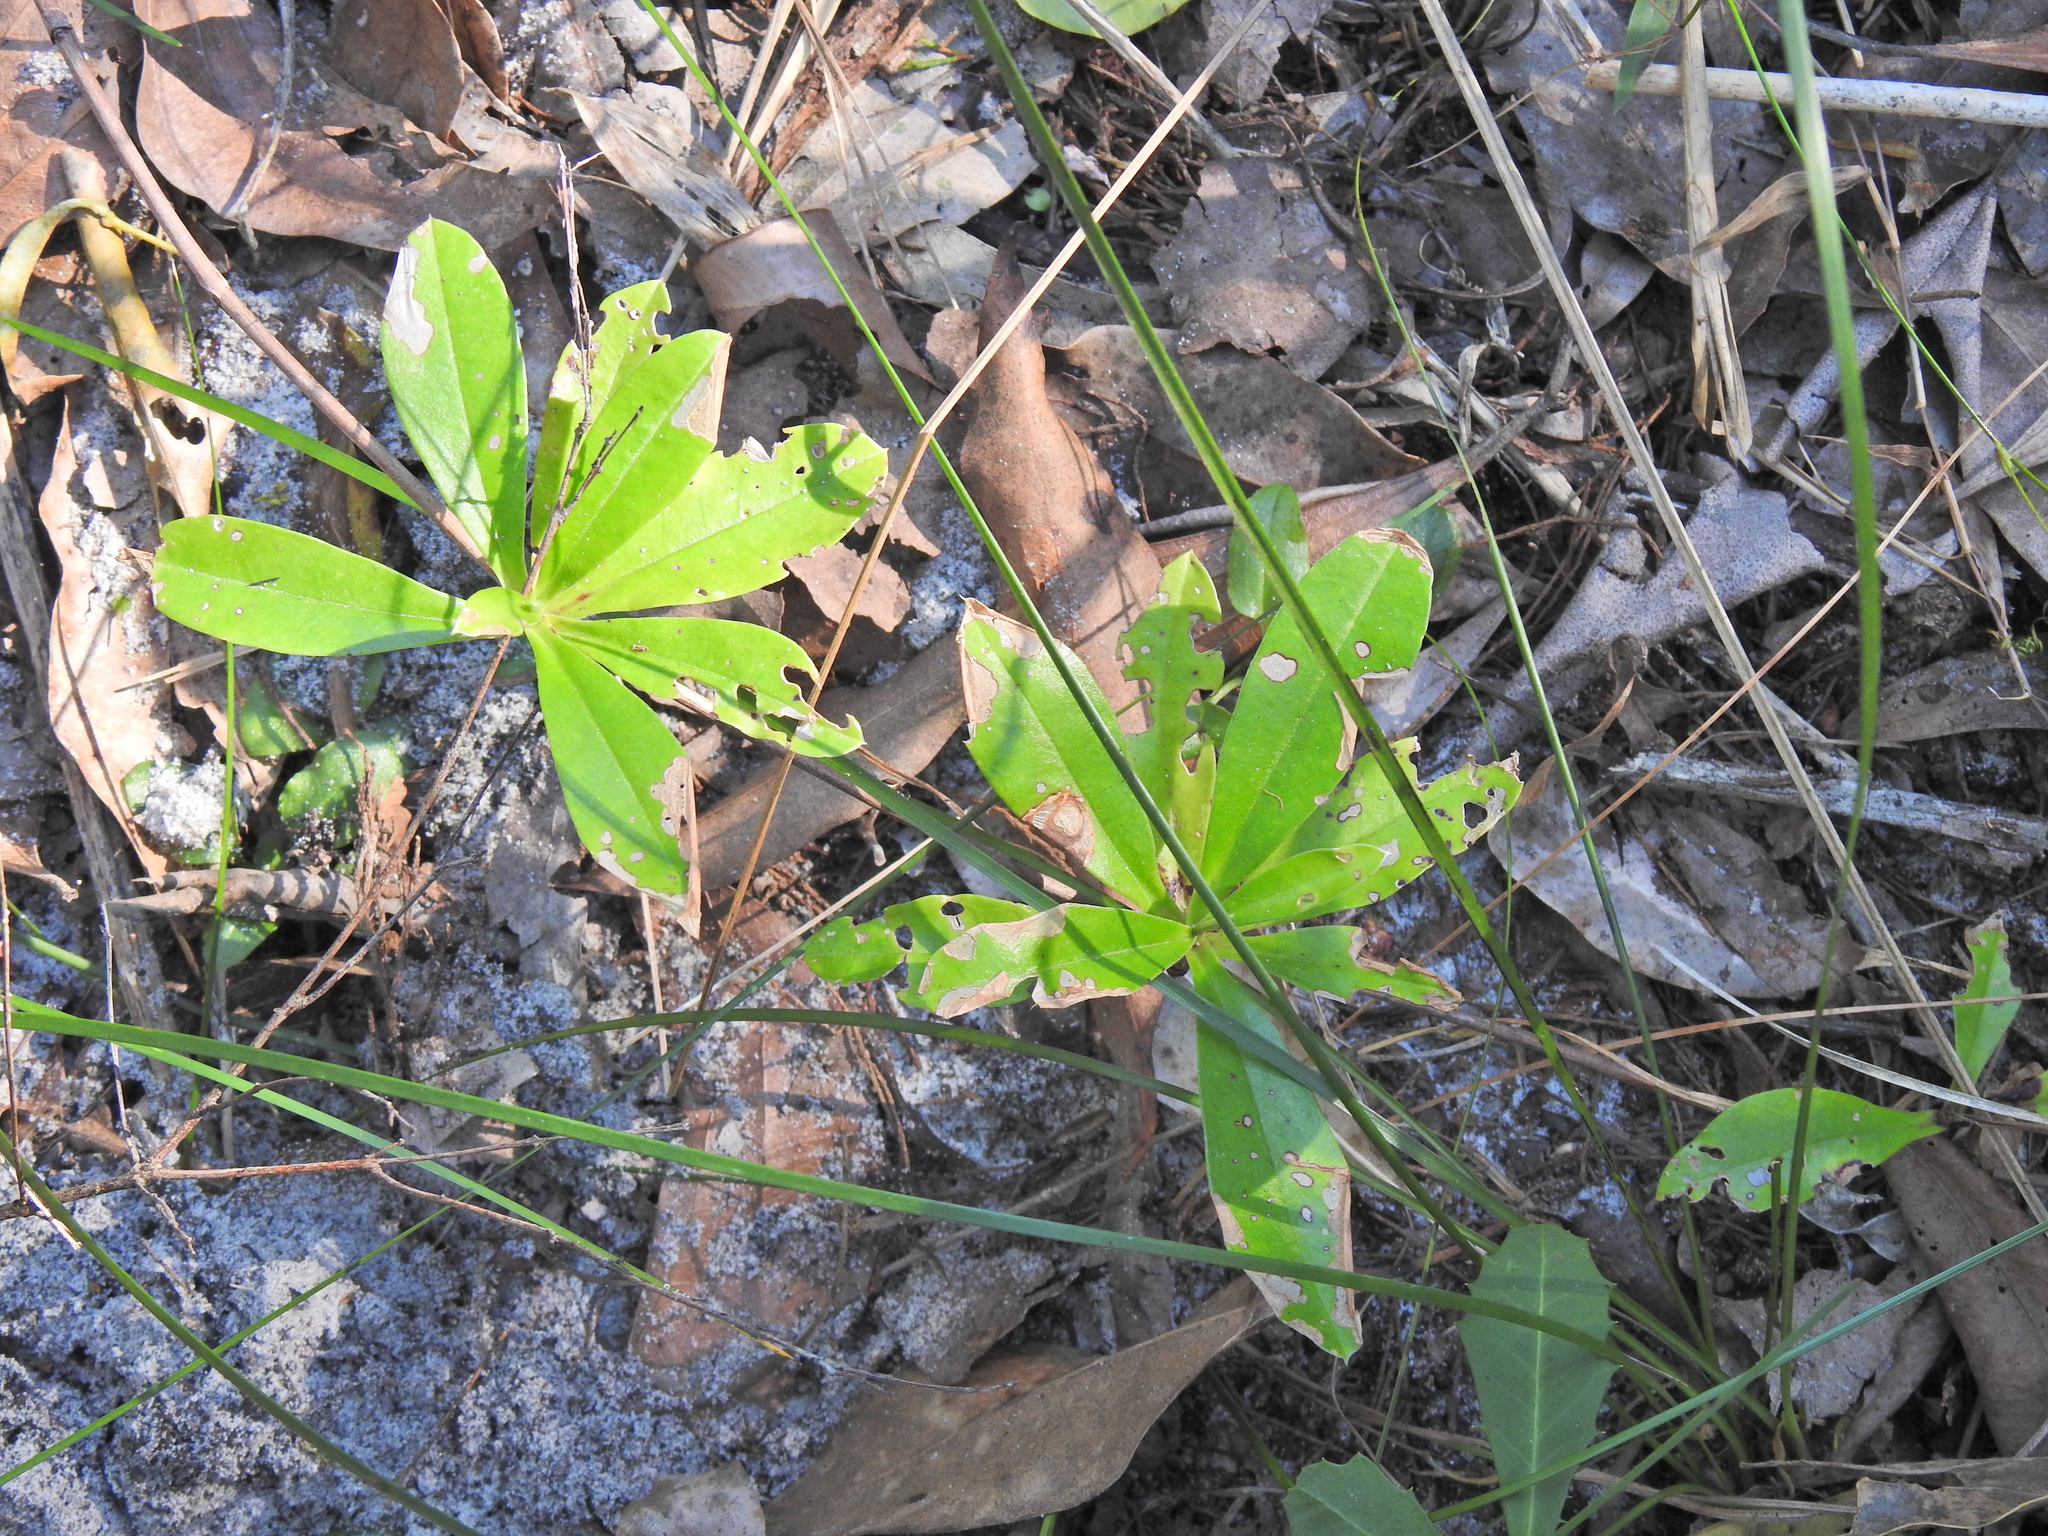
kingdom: Plantae
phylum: Tracheophyta
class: Magnoliopsida
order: Dilleniales
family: Dilleniaceae
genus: Hibbertia
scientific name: Hibbertia scandens
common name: Climbing guinea-flower
